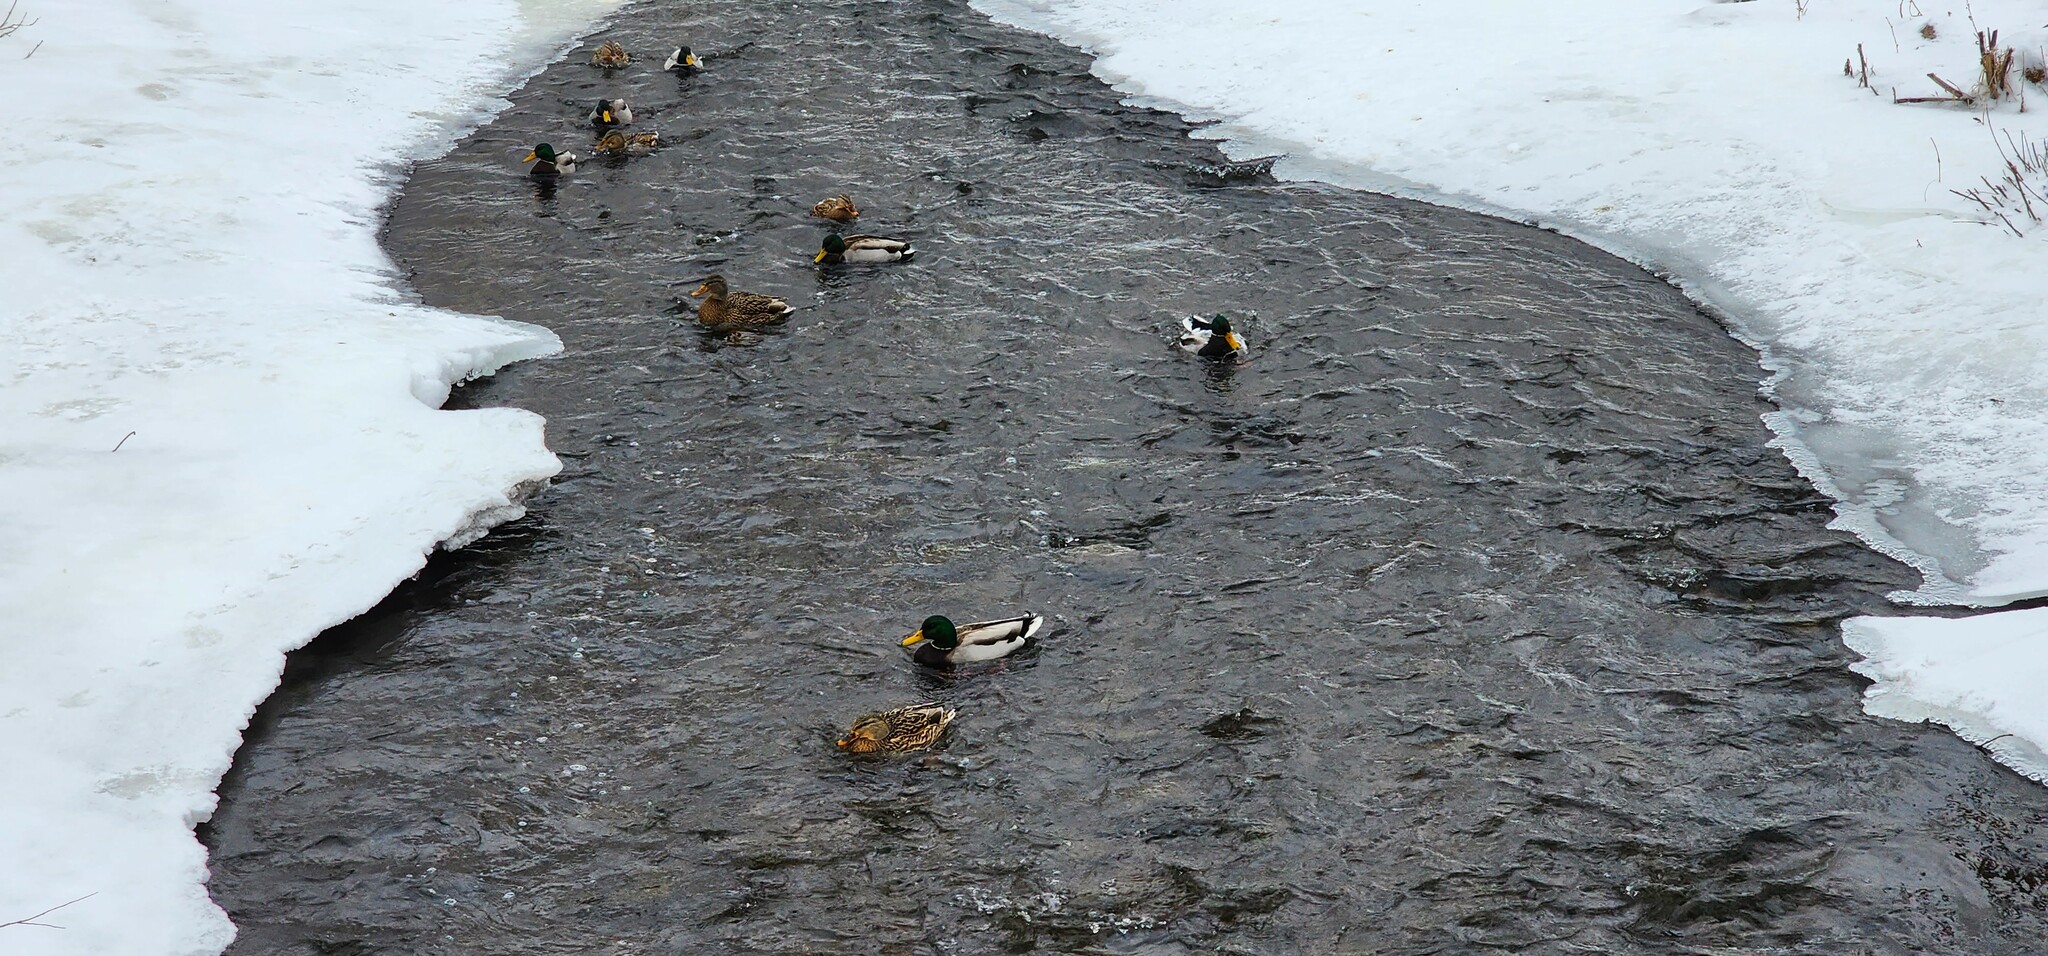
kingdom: Animalia
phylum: Chordata
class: Aves
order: Anseriformes
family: Anatidae
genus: Anas
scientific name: Anas platyrhynchos
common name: Mallard
